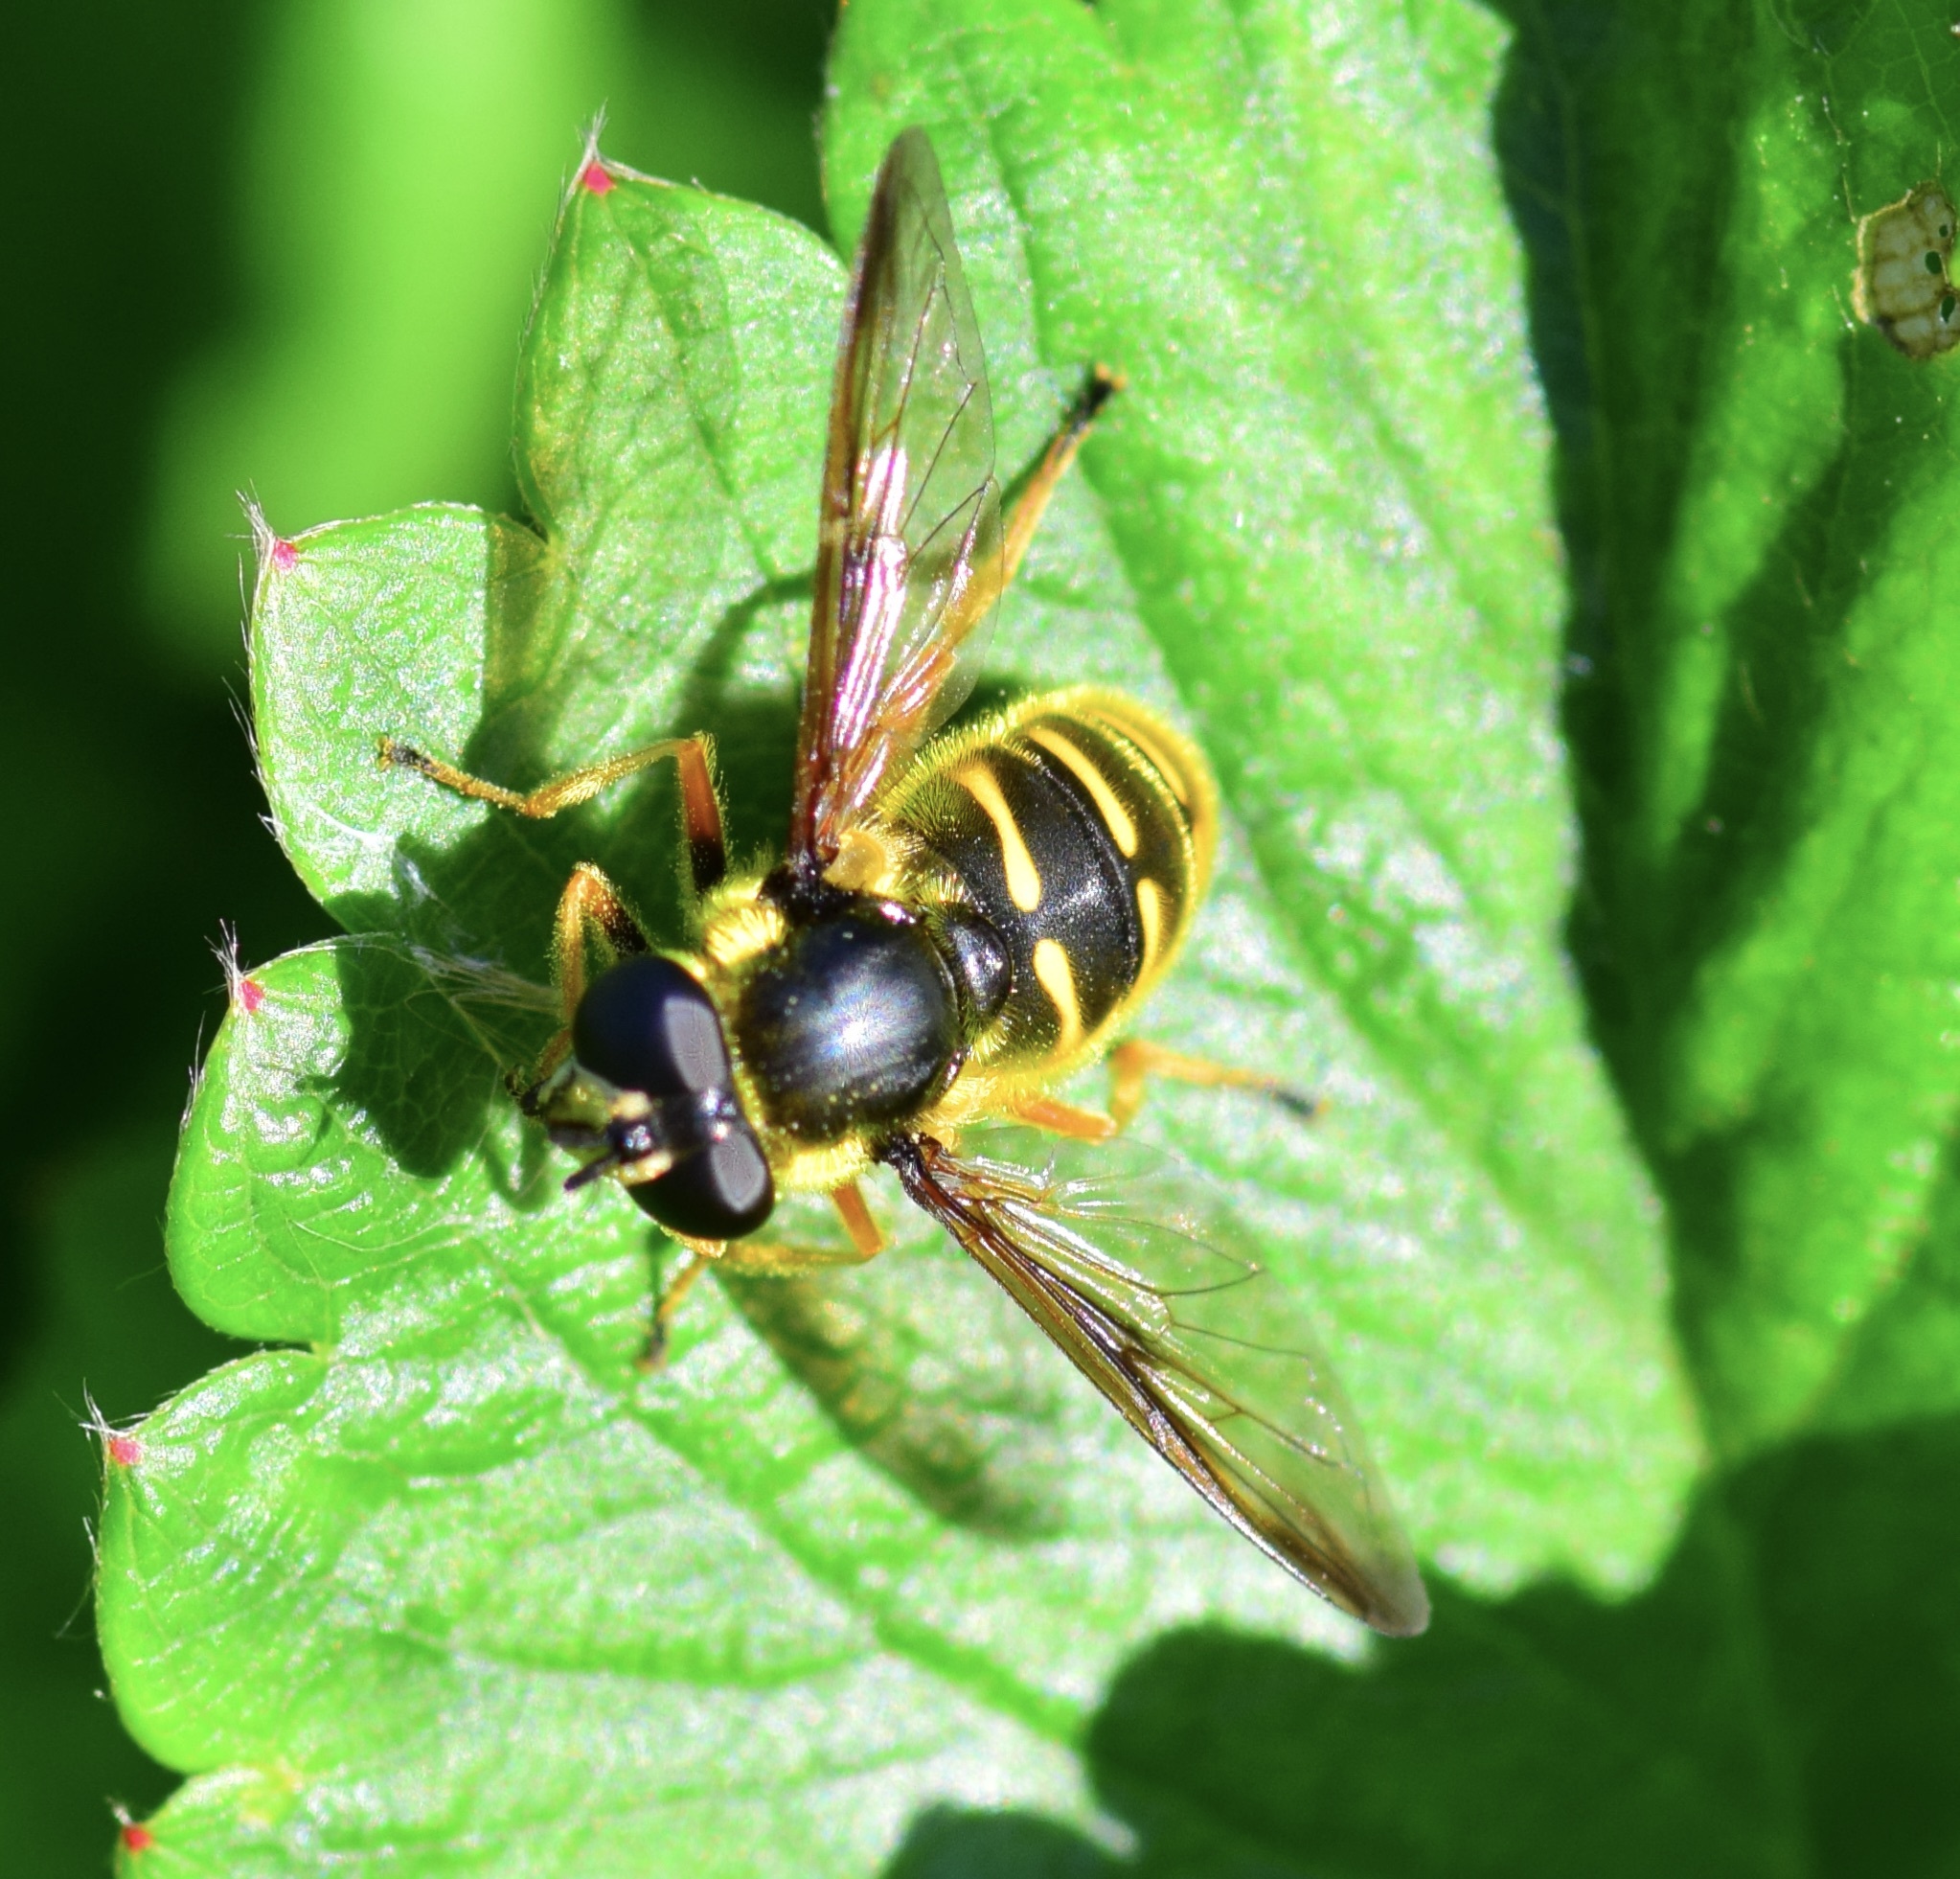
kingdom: Animalia
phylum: Arthropoda
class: Insecta
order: Diptera
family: Syrphidae
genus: Sericomyia
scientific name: Sericomyia chrysotoxoides
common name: Oblique-banded pond fly
